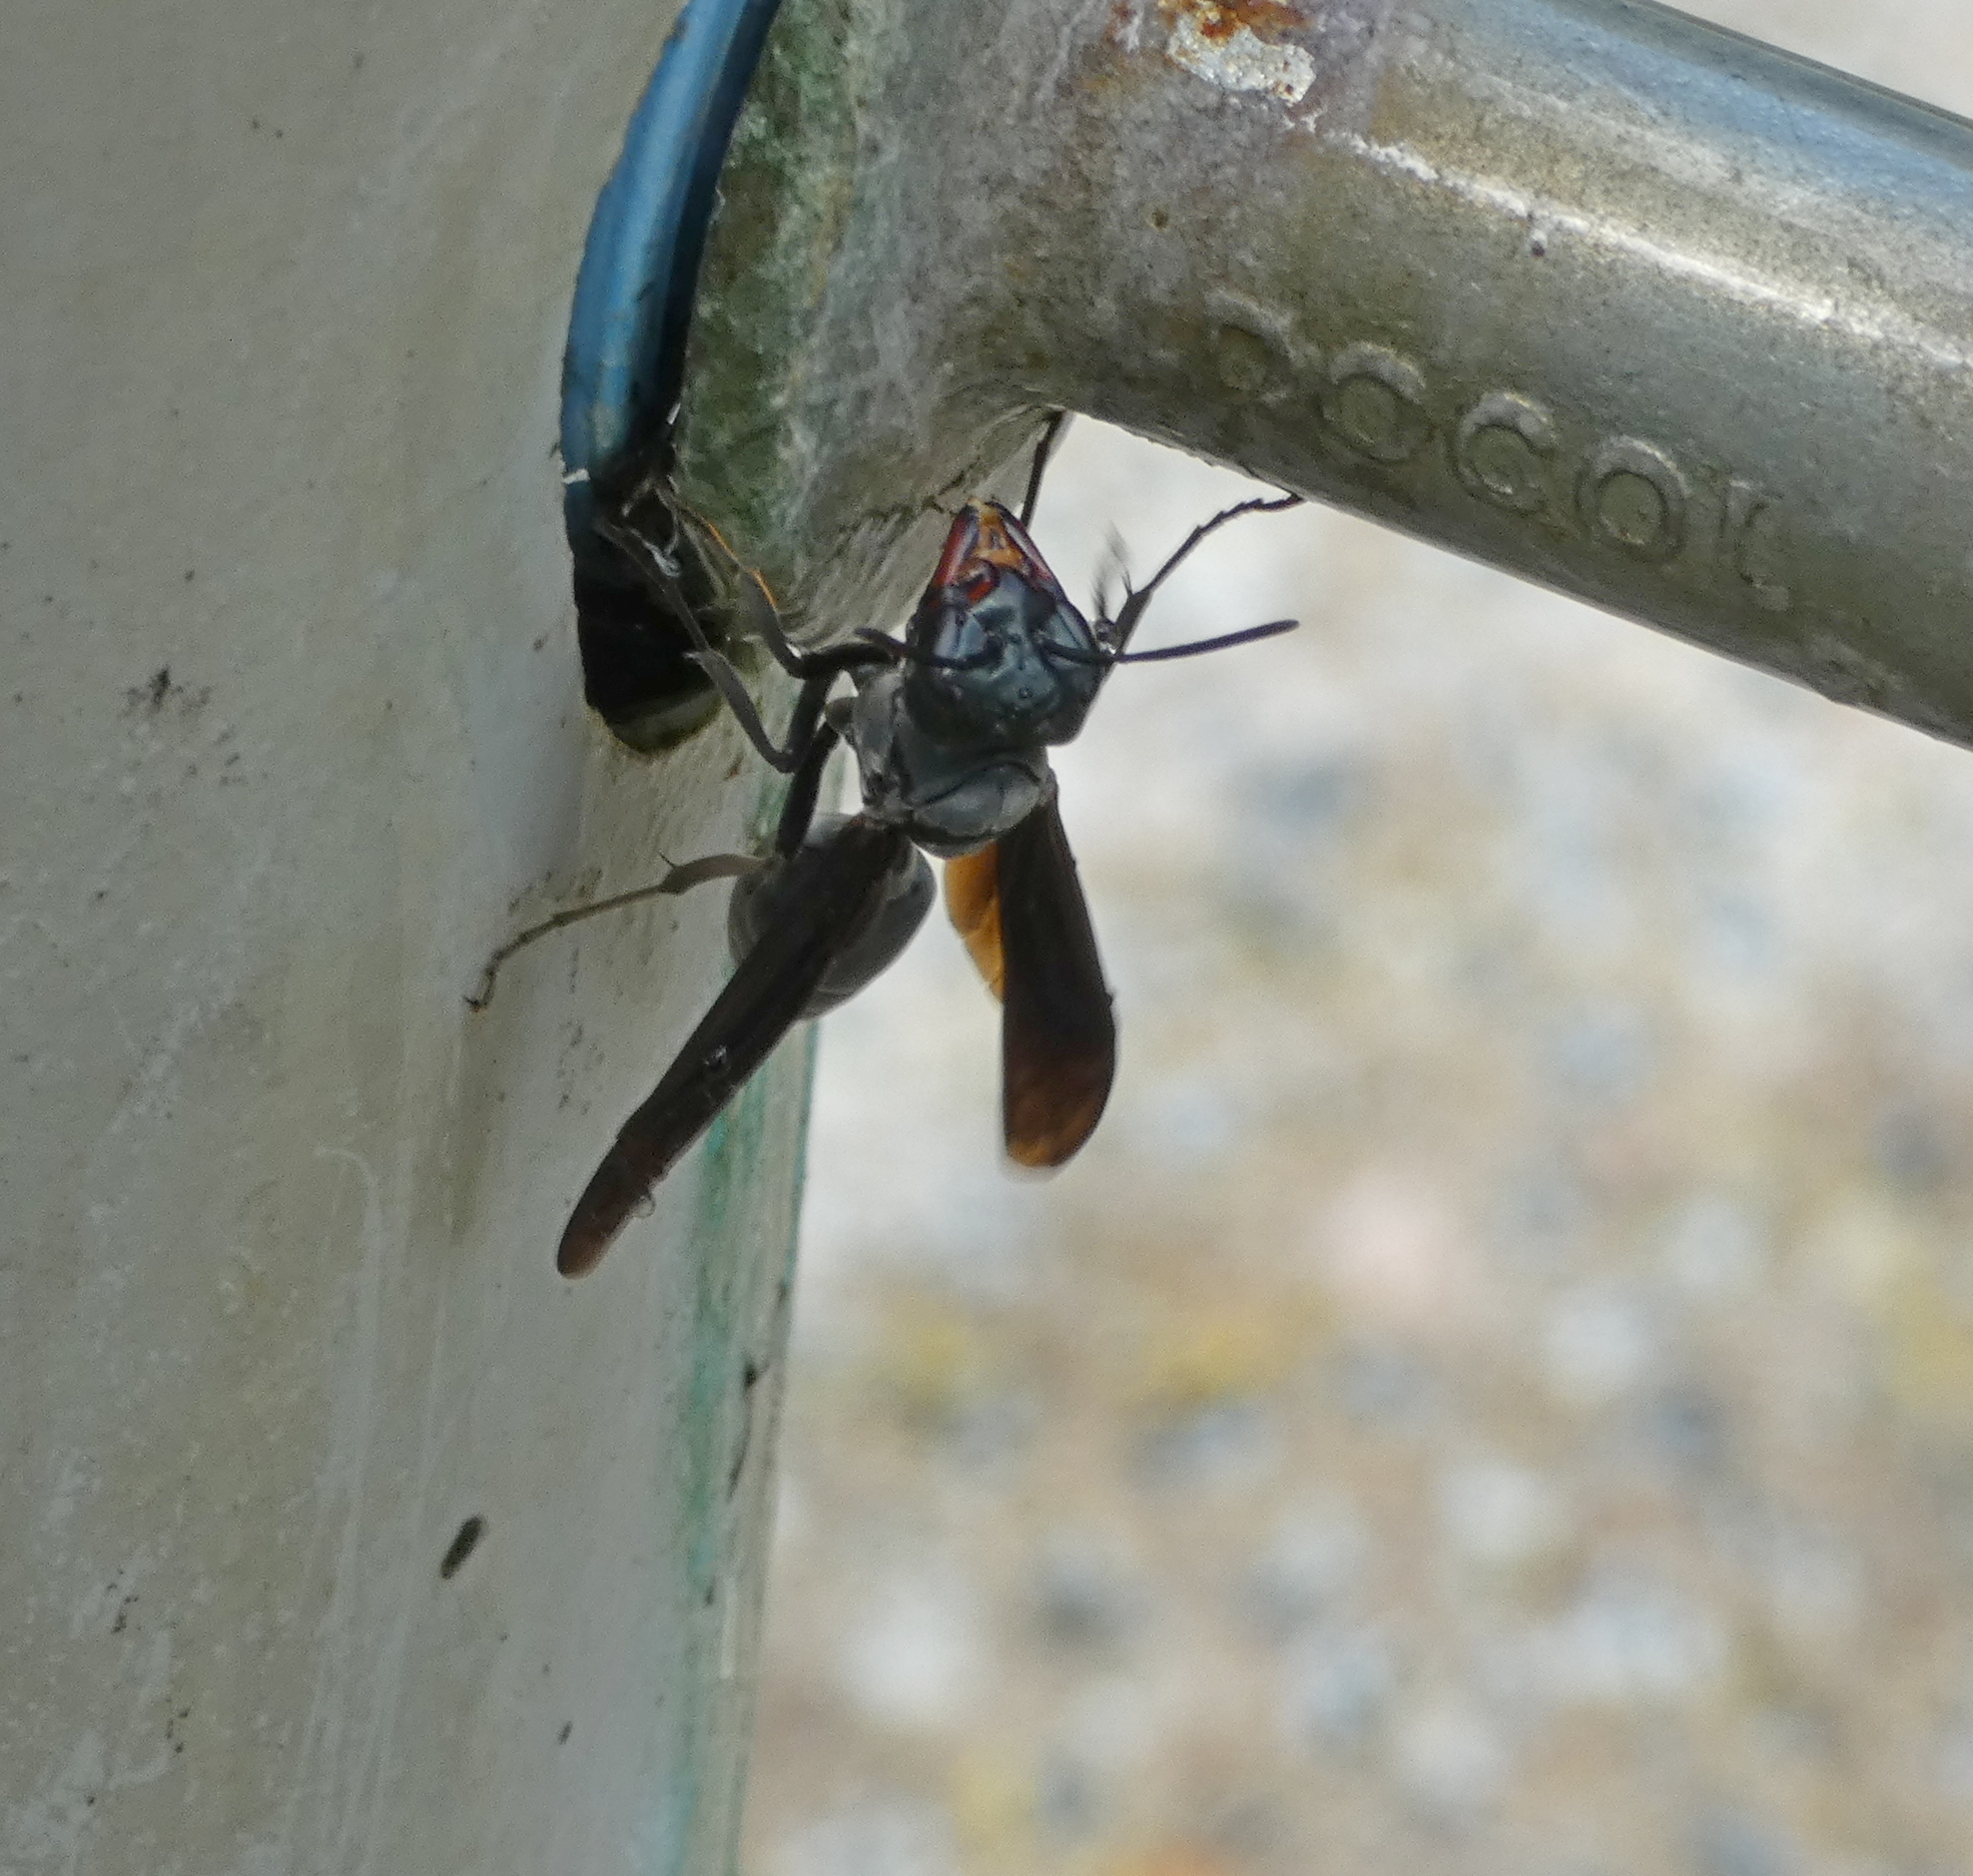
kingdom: Animalia
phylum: Arthropoda
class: Insecta
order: Hymenoptera
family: Vespidae
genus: Synoeca
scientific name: Synoeca ilheensis
